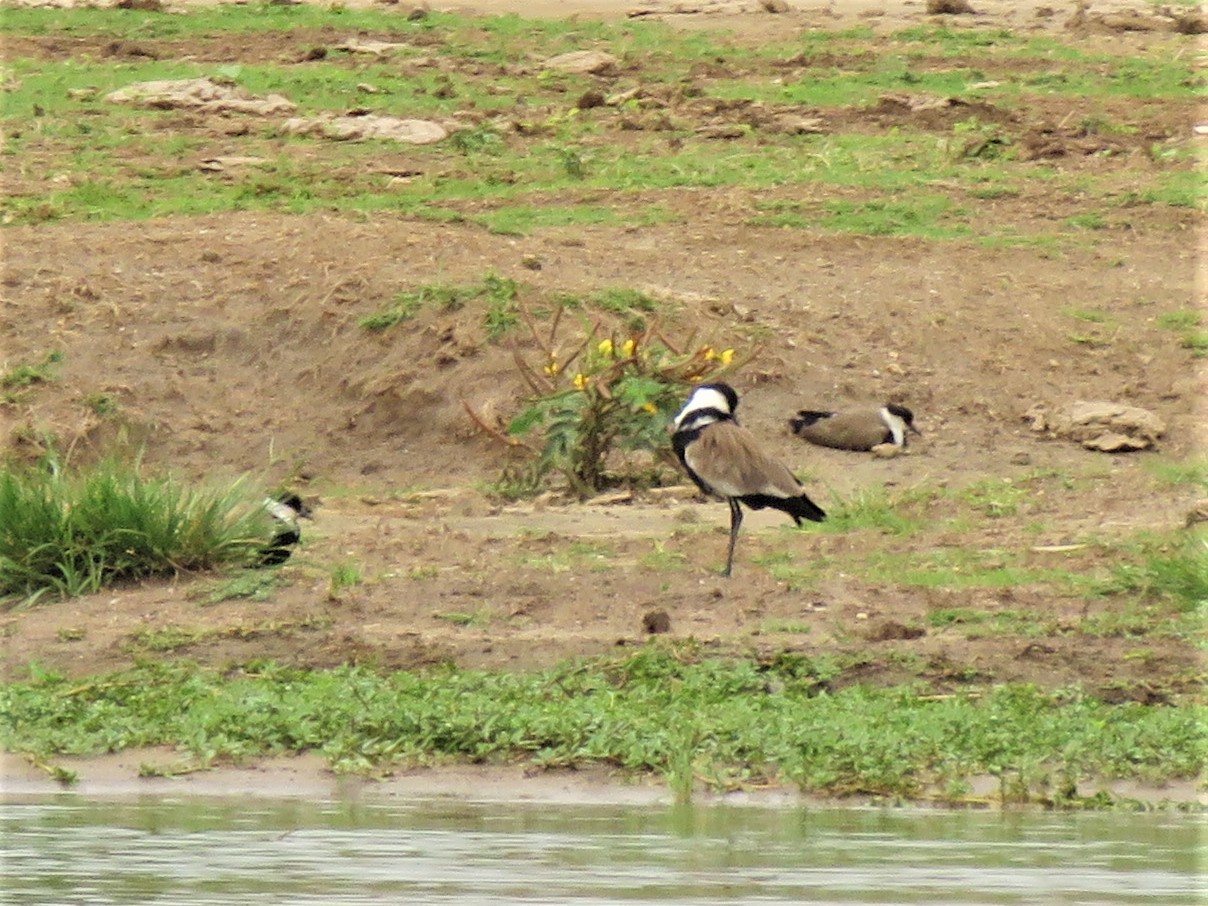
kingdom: Animalia
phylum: Chordata
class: Aves
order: Charadriiformes
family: Charadriidae
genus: Vanellus
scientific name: Vanellus spinosus
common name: Spur-winged lapwing
